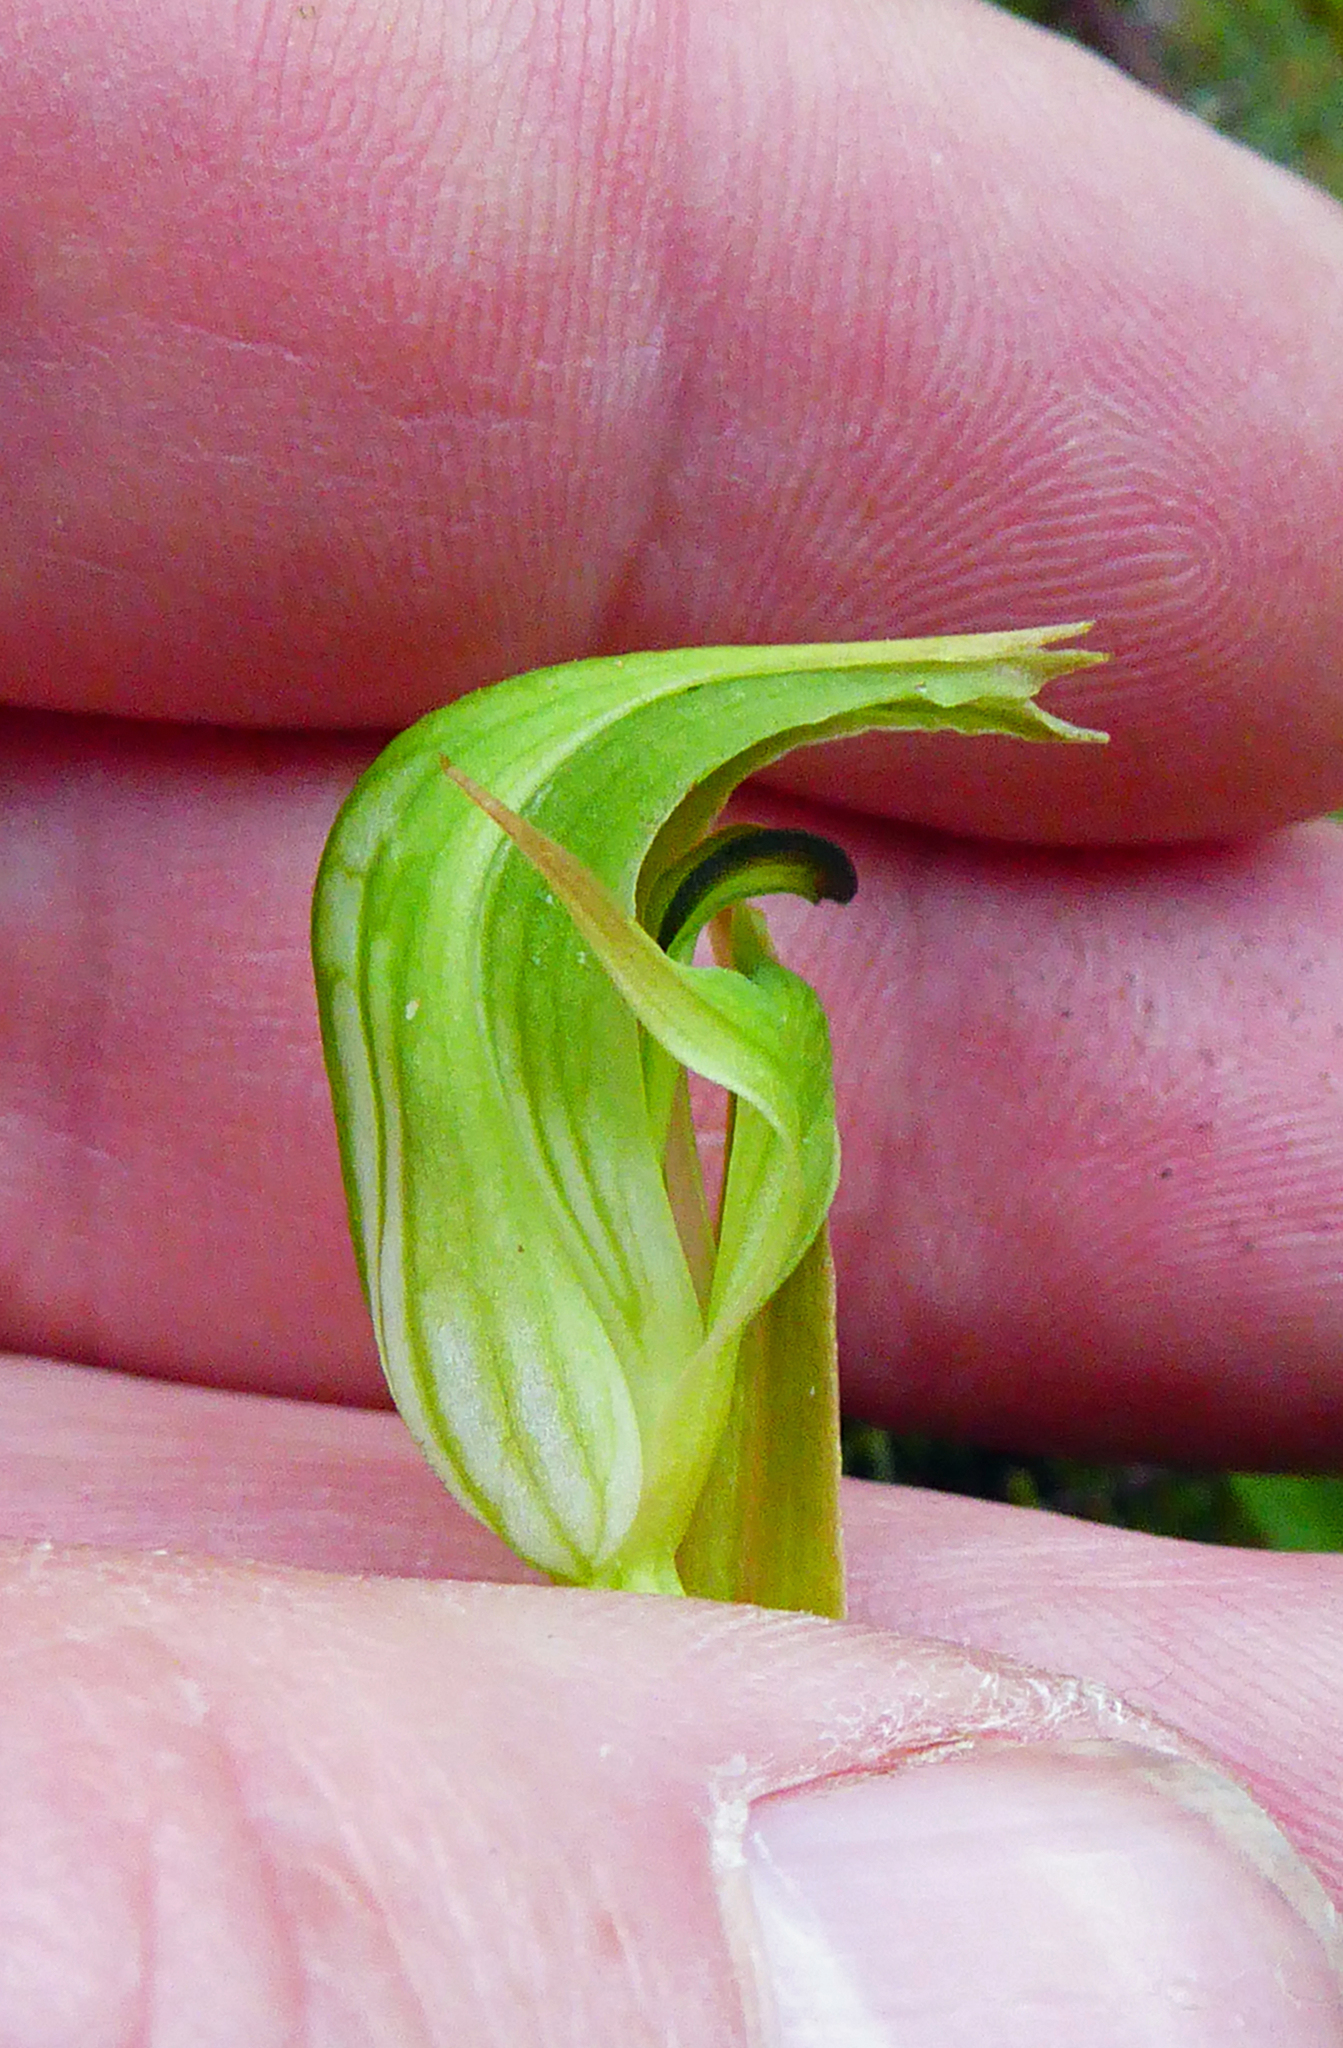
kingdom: Plantae
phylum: Tracheophyta
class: Liliopsida
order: Asparagales
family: Orchidaceae
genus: Pterostylis
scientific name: Pterostylis montana
